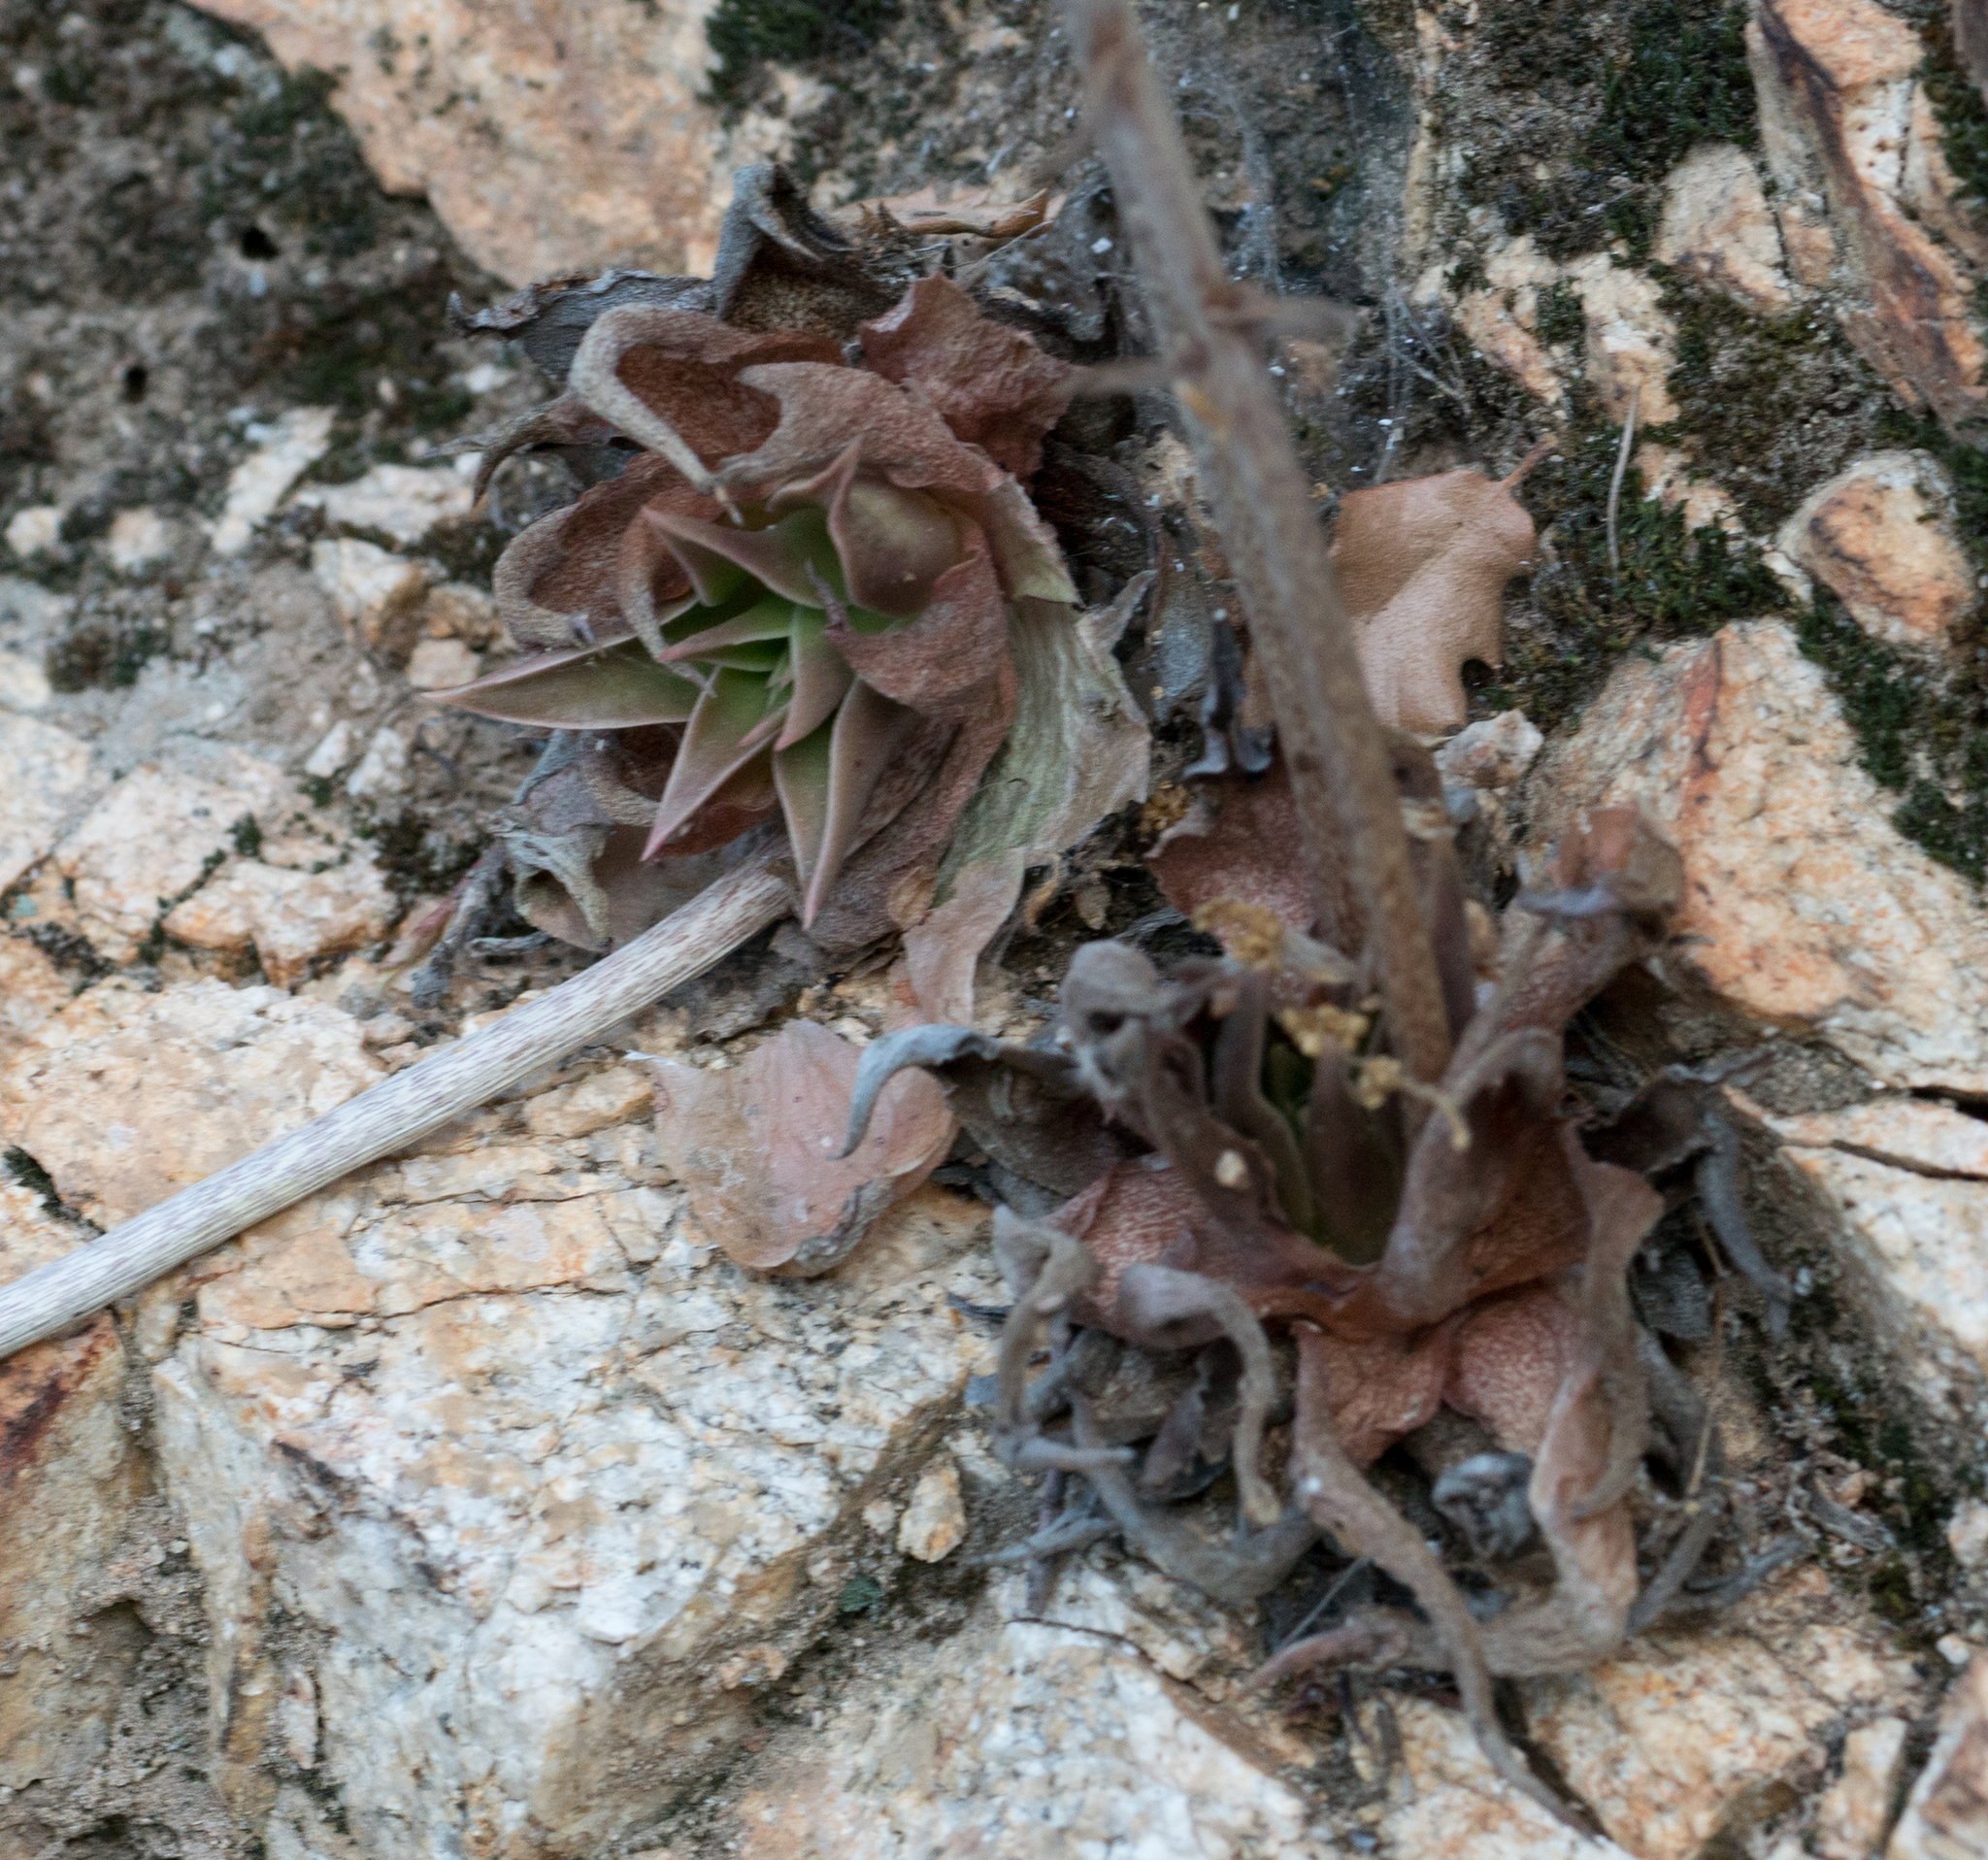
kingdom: Plantae
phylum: Tracheophyta
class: Magnoliopsida
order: Saxifragales
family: Crassulaceae
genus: Dudleya
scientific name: Dudleya
